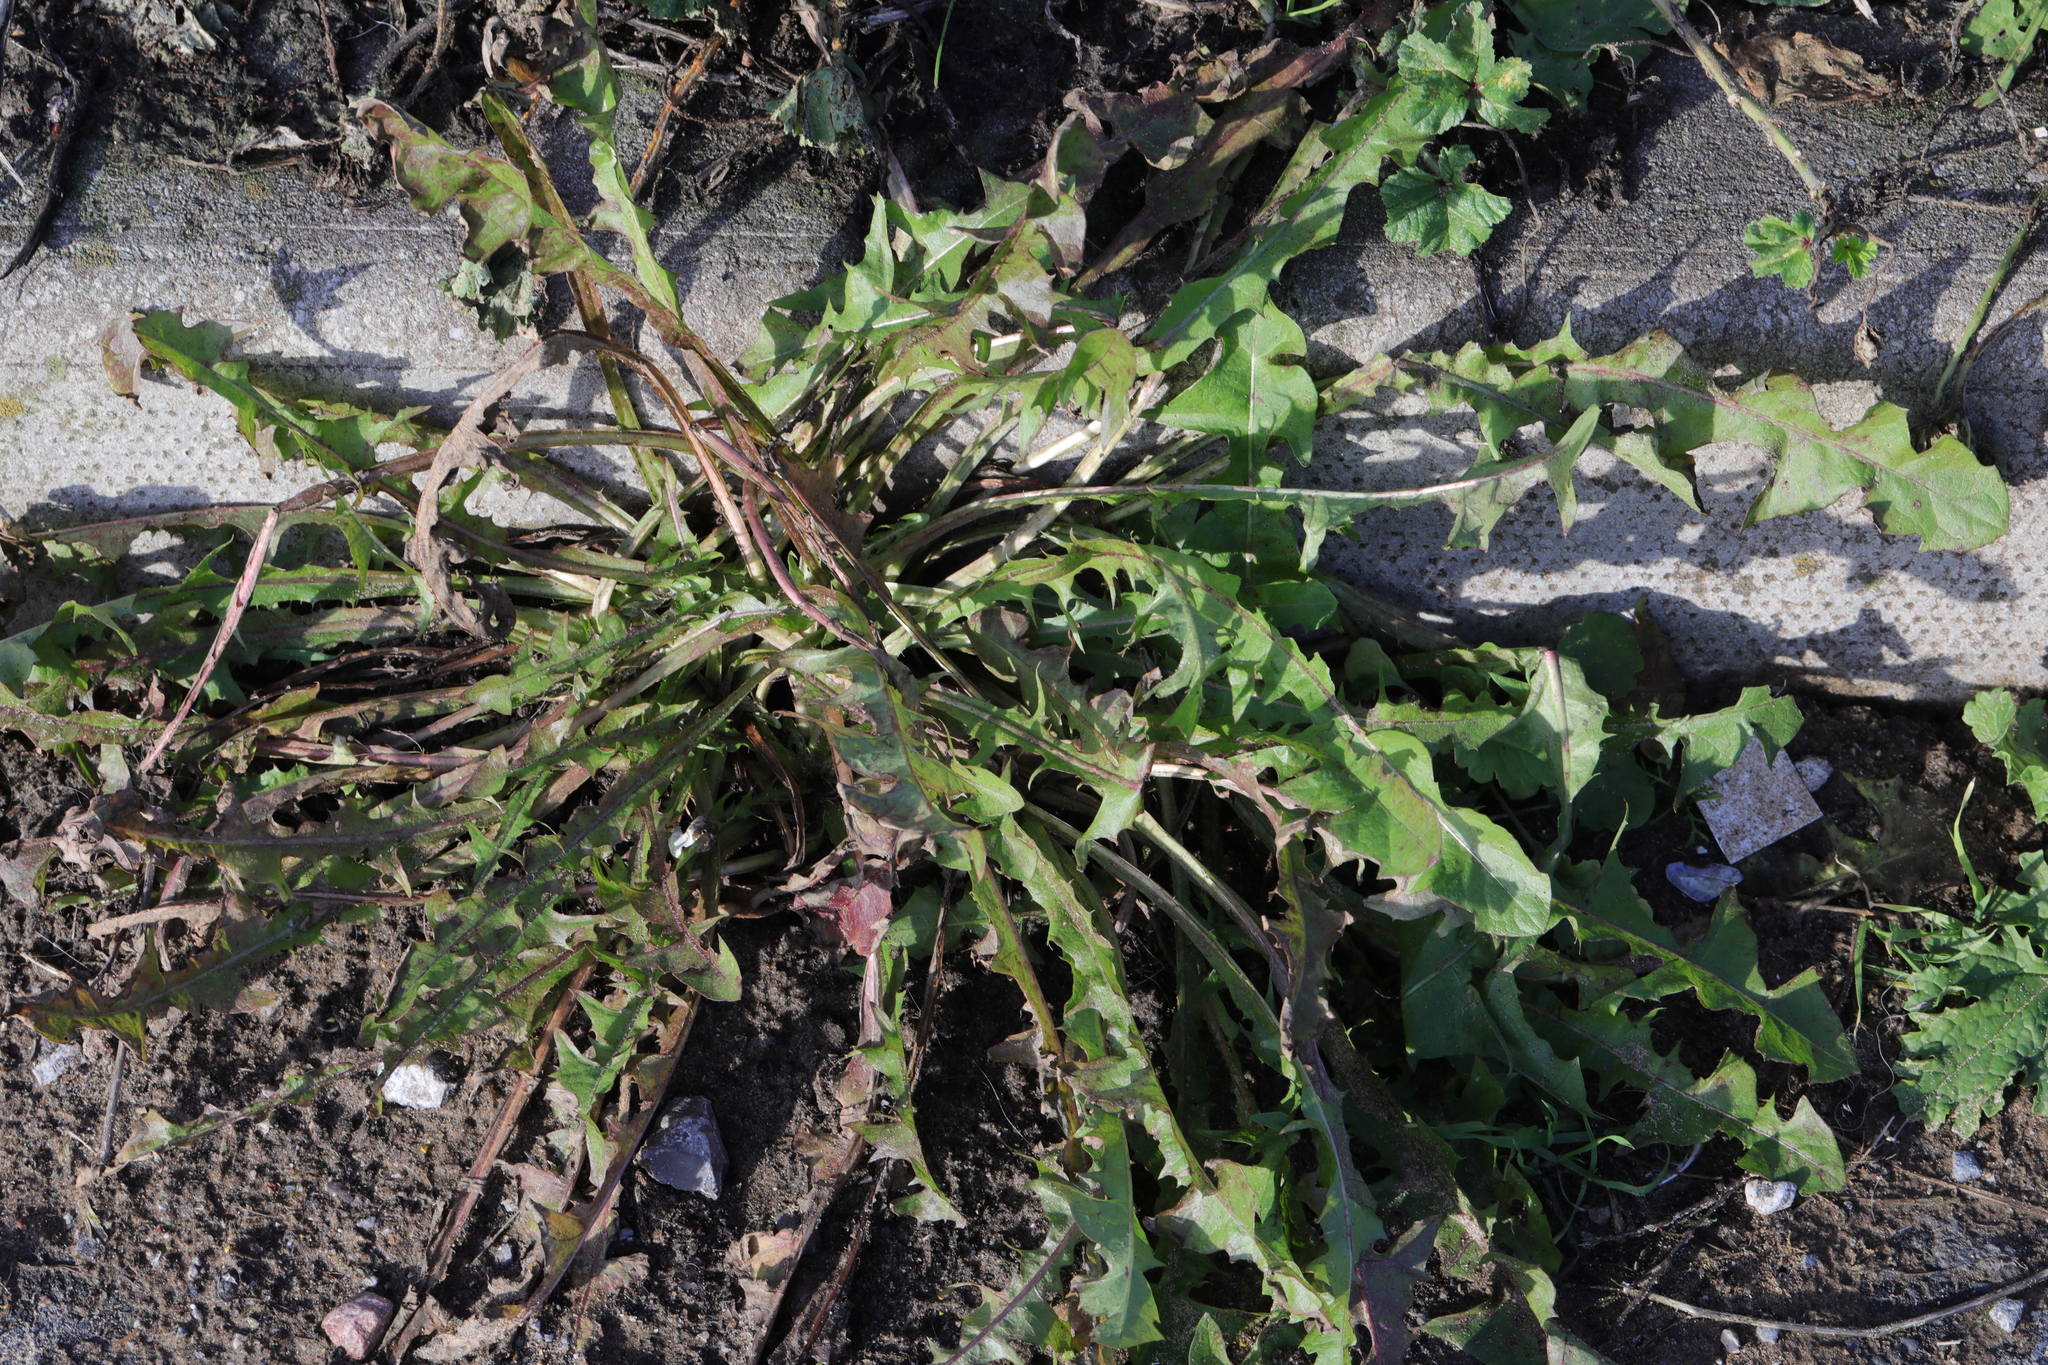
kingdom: Plantae
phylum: Tracheophyta
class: Magnoliopsida
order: Asterales
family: Asteraceae
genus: Taraxacum
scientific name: Taraxacum officinale
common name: Common dandelion
